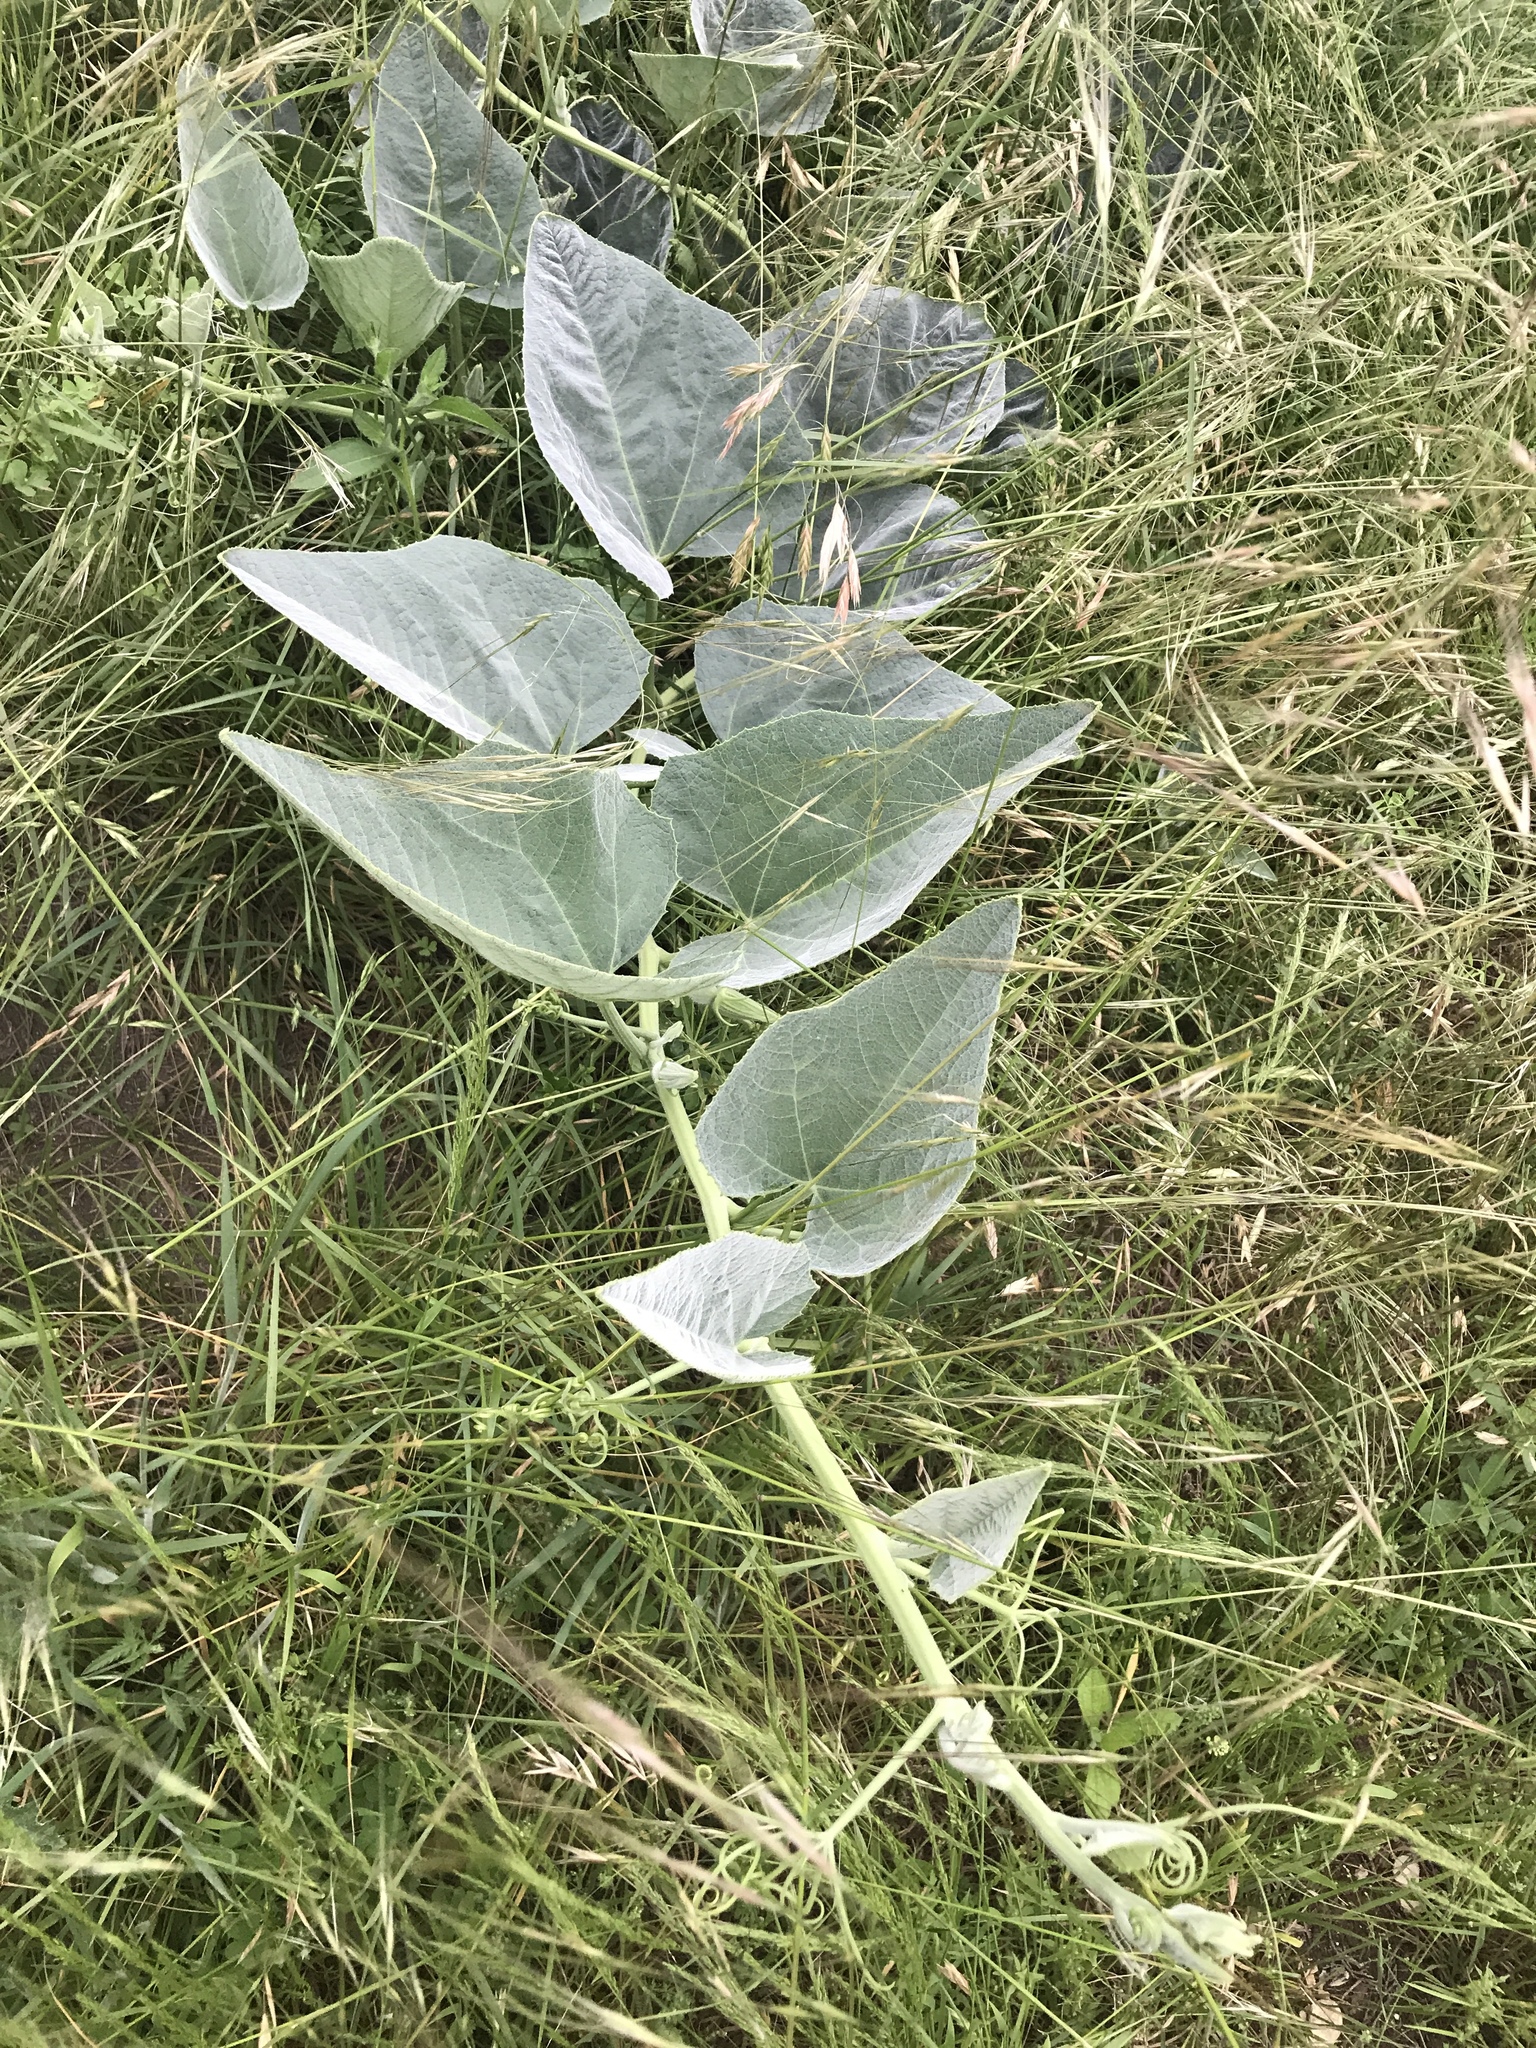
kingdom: Plantae
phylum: Tracheophyta
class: Magnoliopsida
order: Cucurbitales
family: Cucurbitaceae
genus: Cucurbita
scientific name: Cucurbita foetidissima
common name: Buffalo gourd
